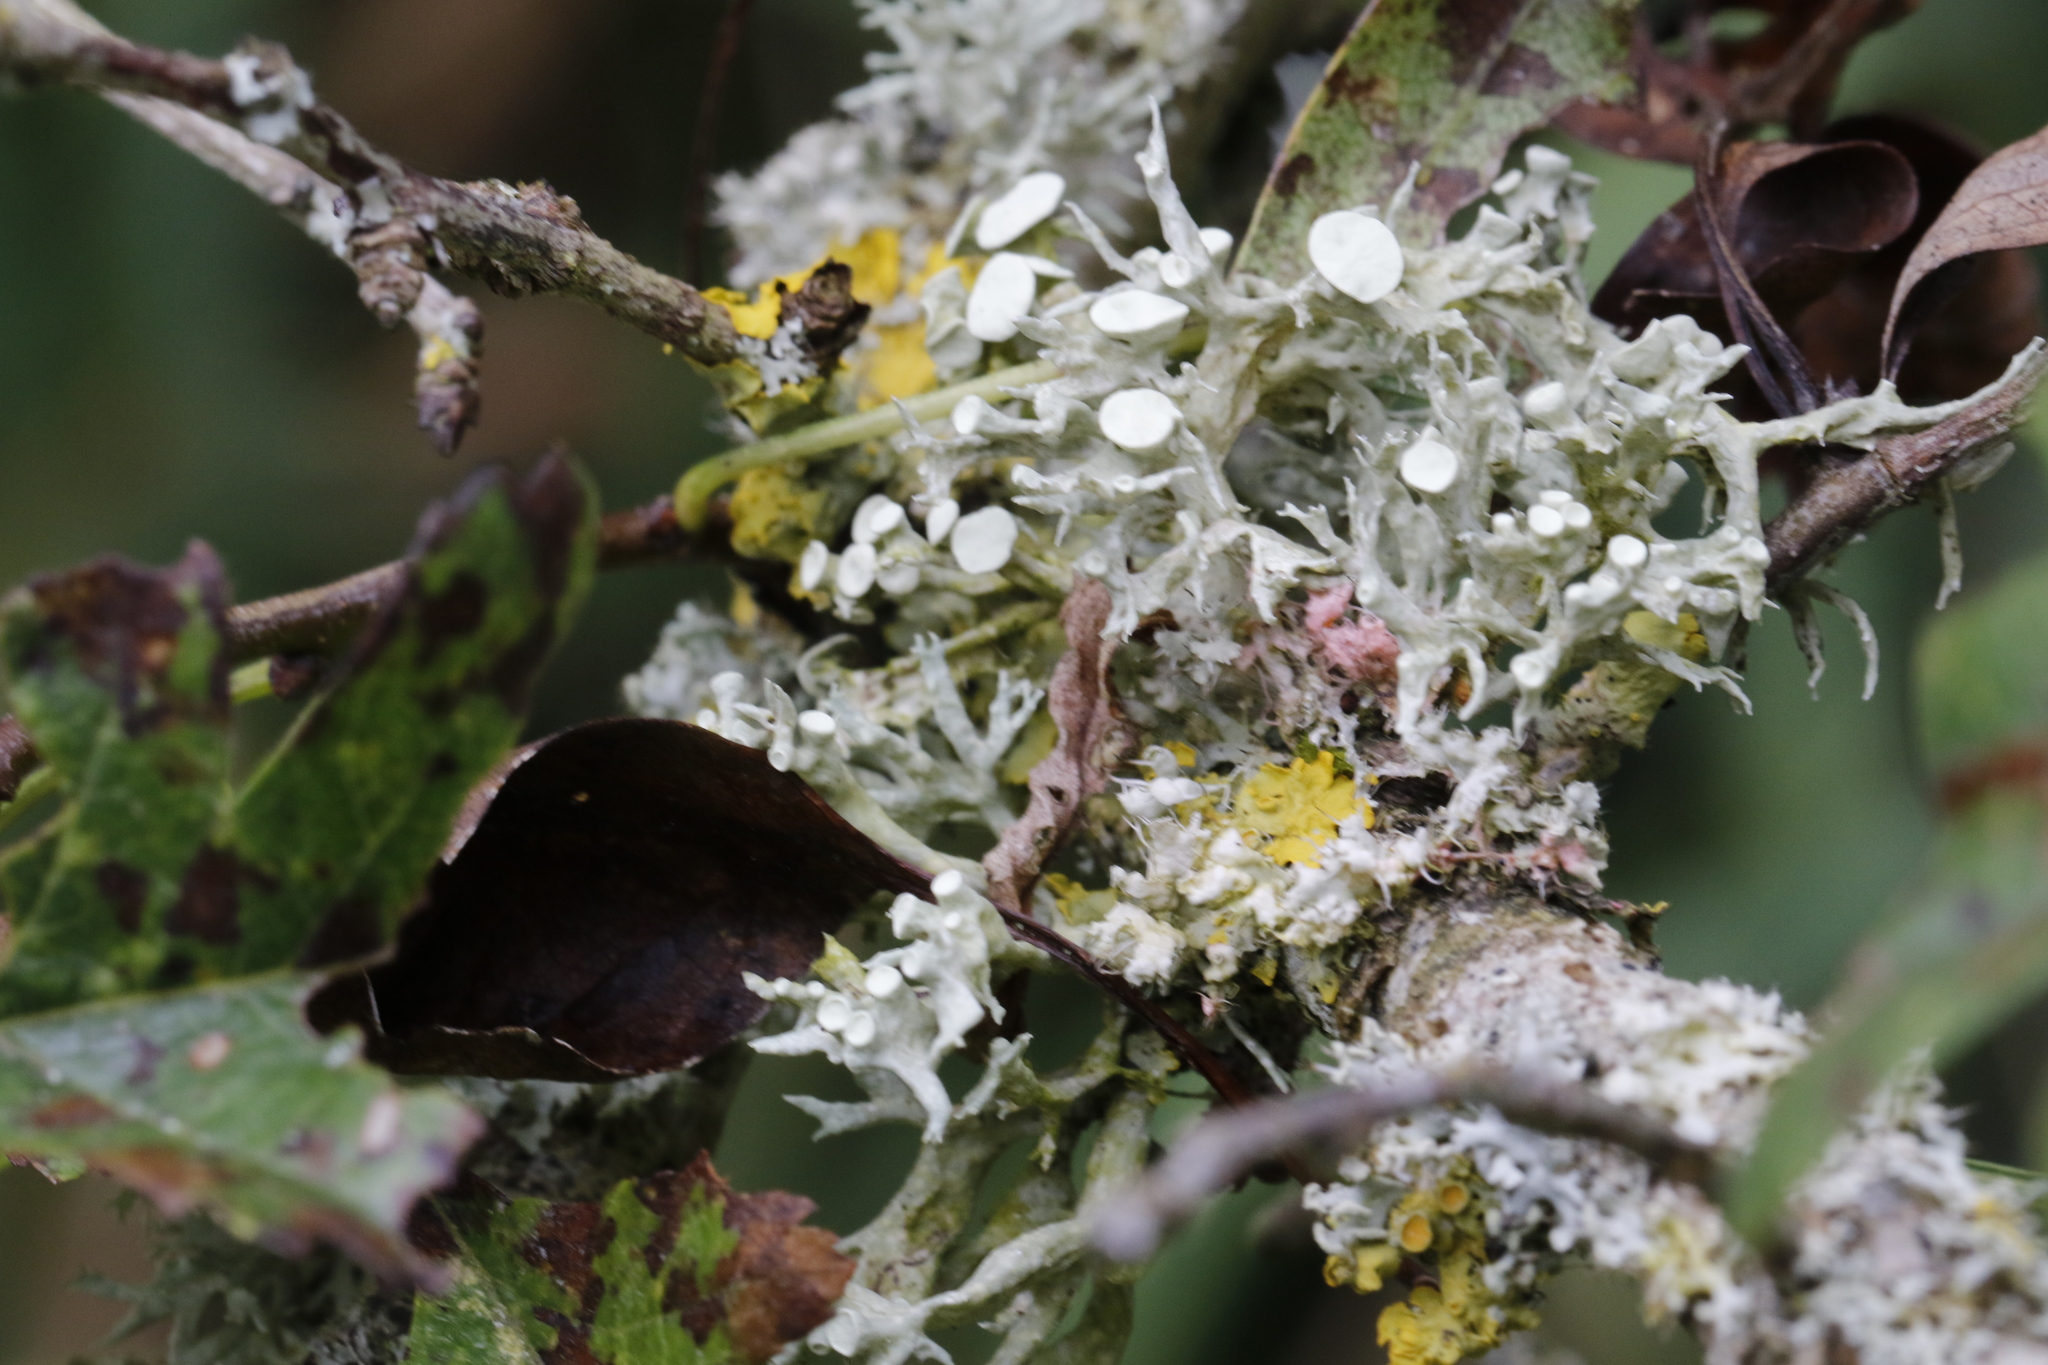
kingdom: Fungi
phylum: Ascomycota
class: Lecanoromycetes
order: Lecanorales
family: Ramalinaceae
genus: Ramalina
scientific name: Ramalina fastigiata
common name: Dotted ribbon lichen
